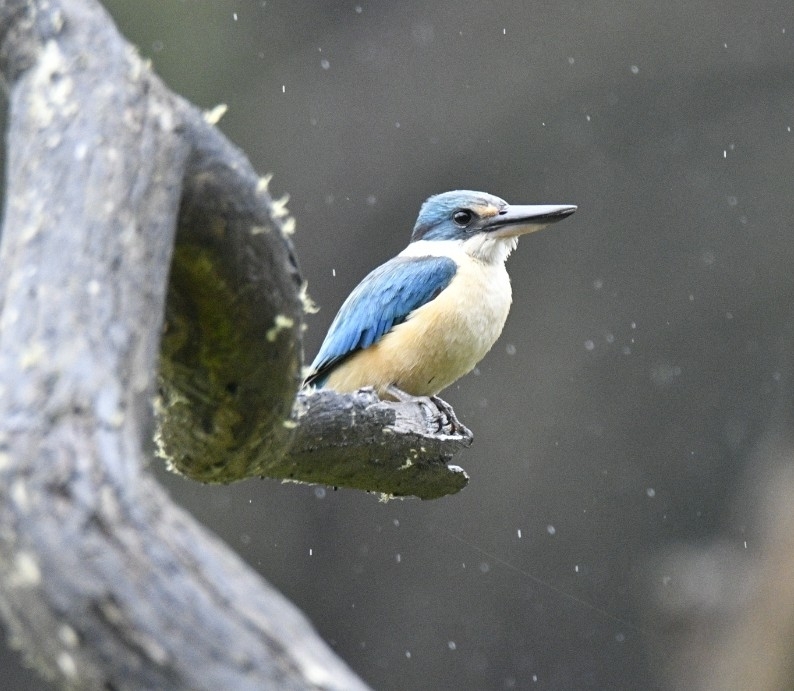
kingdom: Animalia
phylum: Chordata
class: Aves
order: Coraciiformes
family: Alcedinidae
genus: Todiramphus
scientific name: Todiramphus sanctus
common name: Sacred kingfisher
